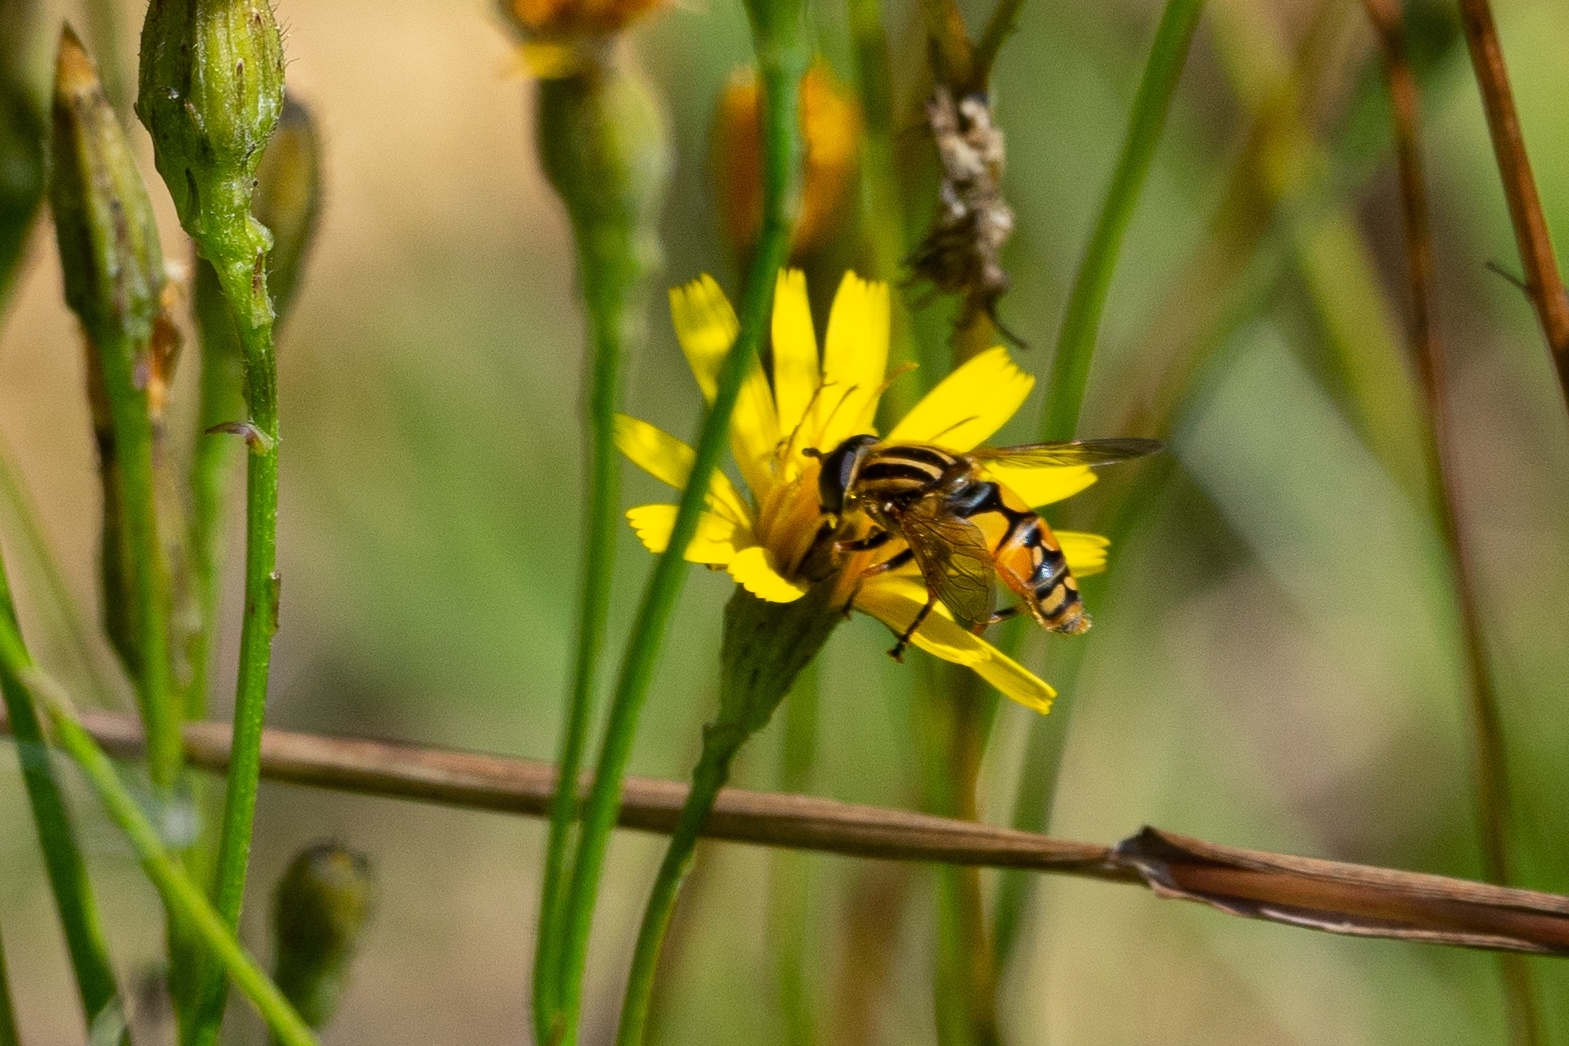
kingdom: Animalia
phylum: Arthropoda
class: Insecta
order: Diptera
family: Syrphidae
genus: Helophilus
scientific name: Helophilus pendulus
